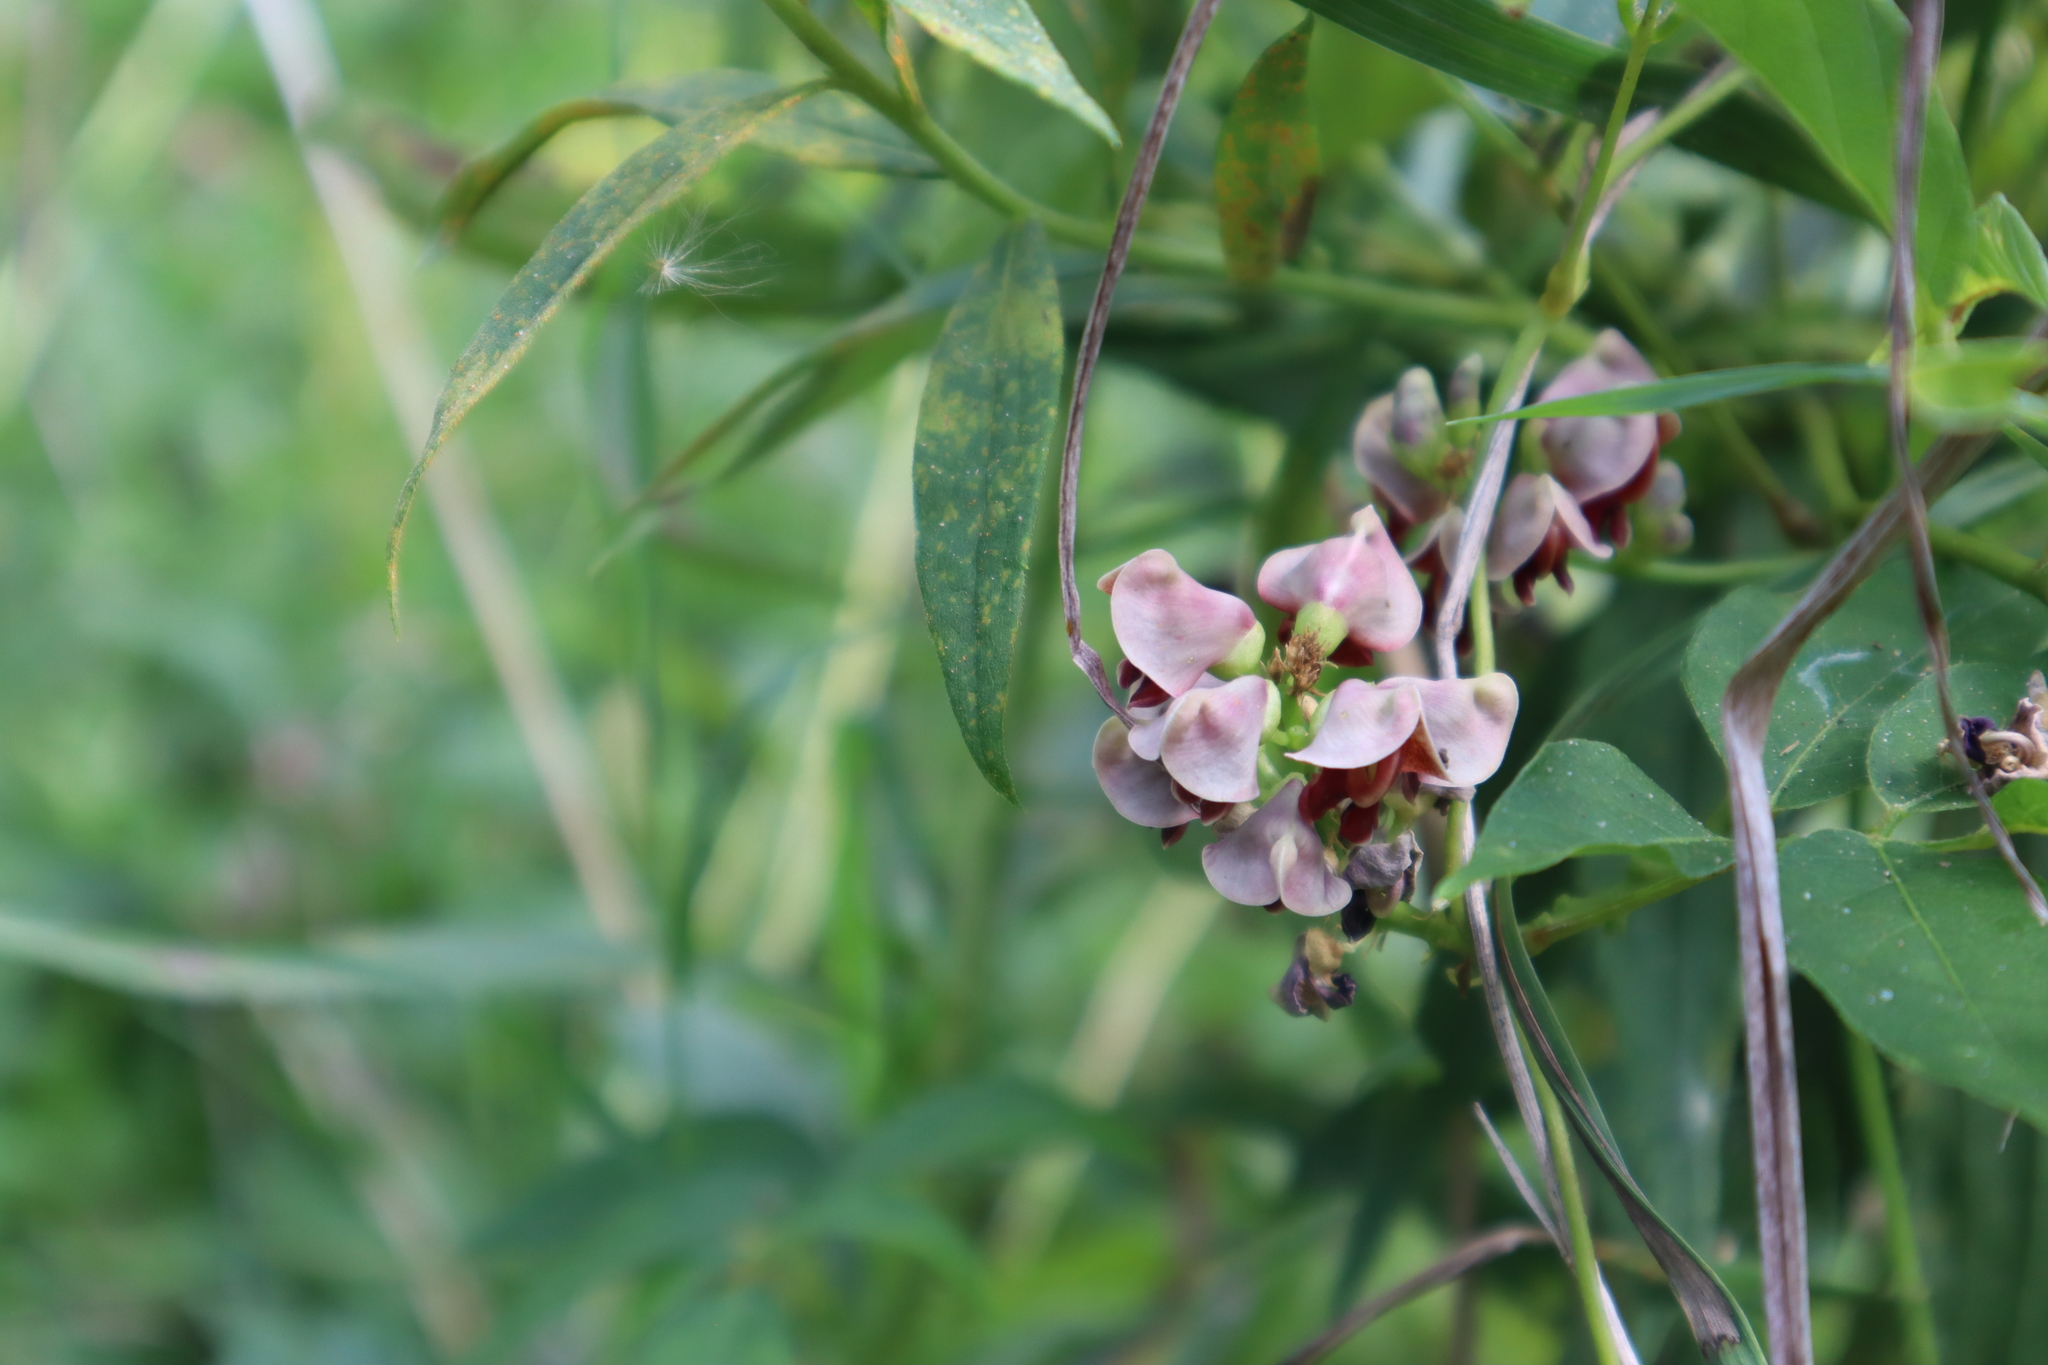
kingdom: Plantae
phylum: Tracheophyta
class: Magnoliopsida
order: Fabales
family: Fabaceae
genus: Apios
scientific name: Apios americana
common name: American potato-bean
